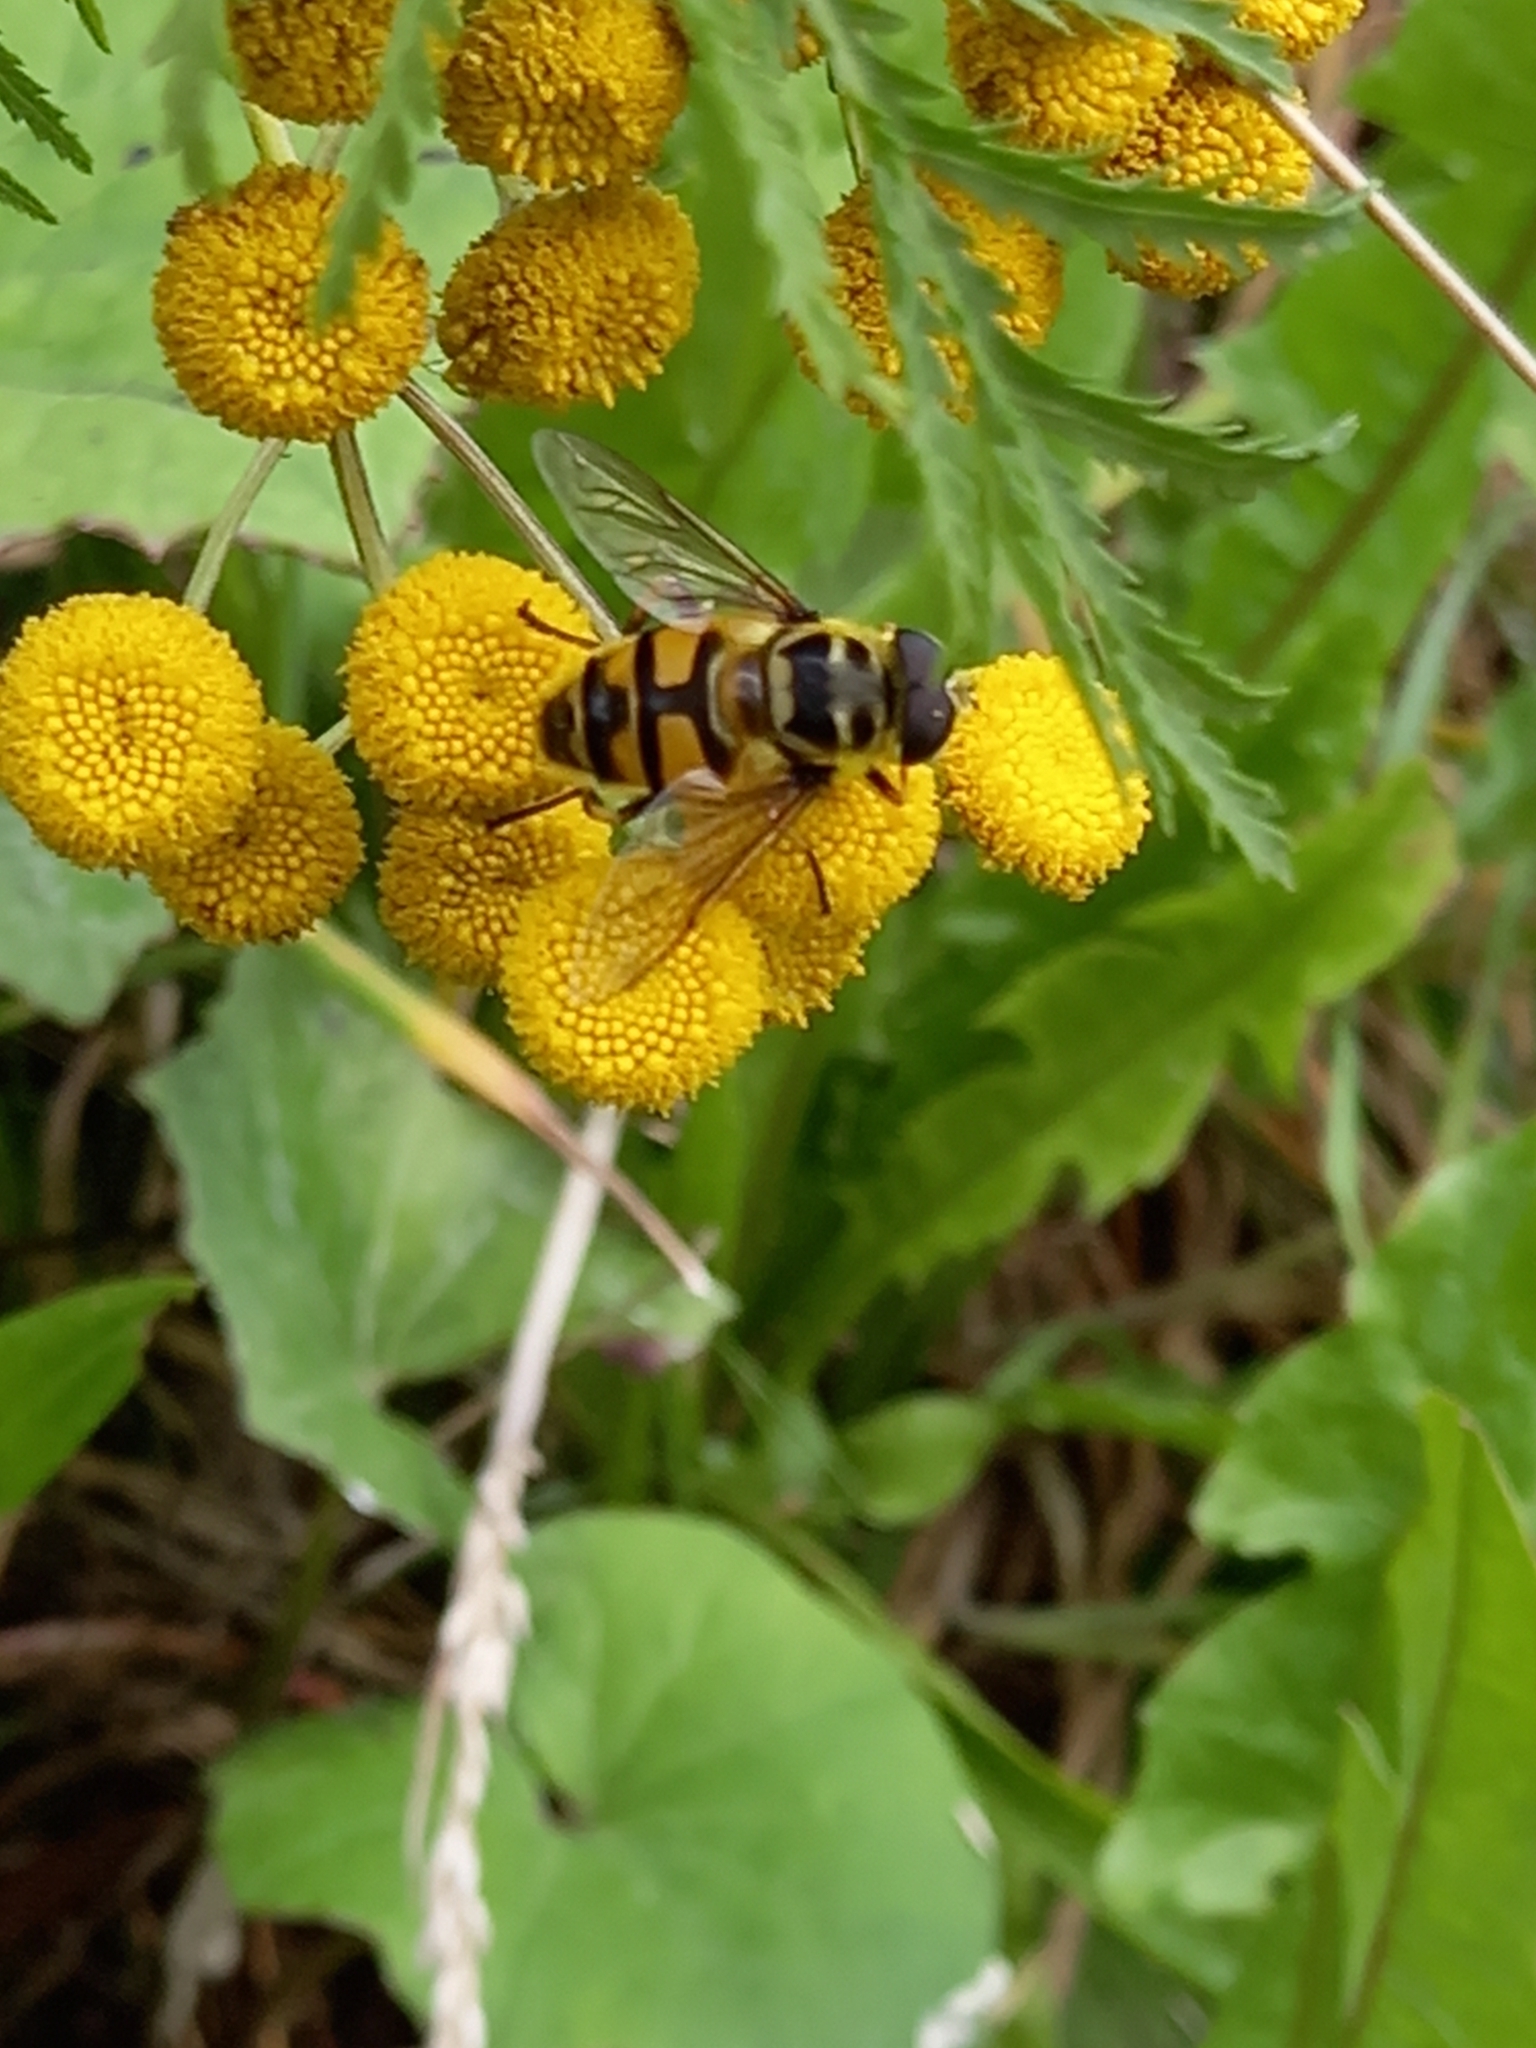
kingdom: Animalia
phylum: Arthropoda
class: Insecta
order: Diptera
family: Syrphidae
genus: Myathropa
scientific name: Myathropa florea
